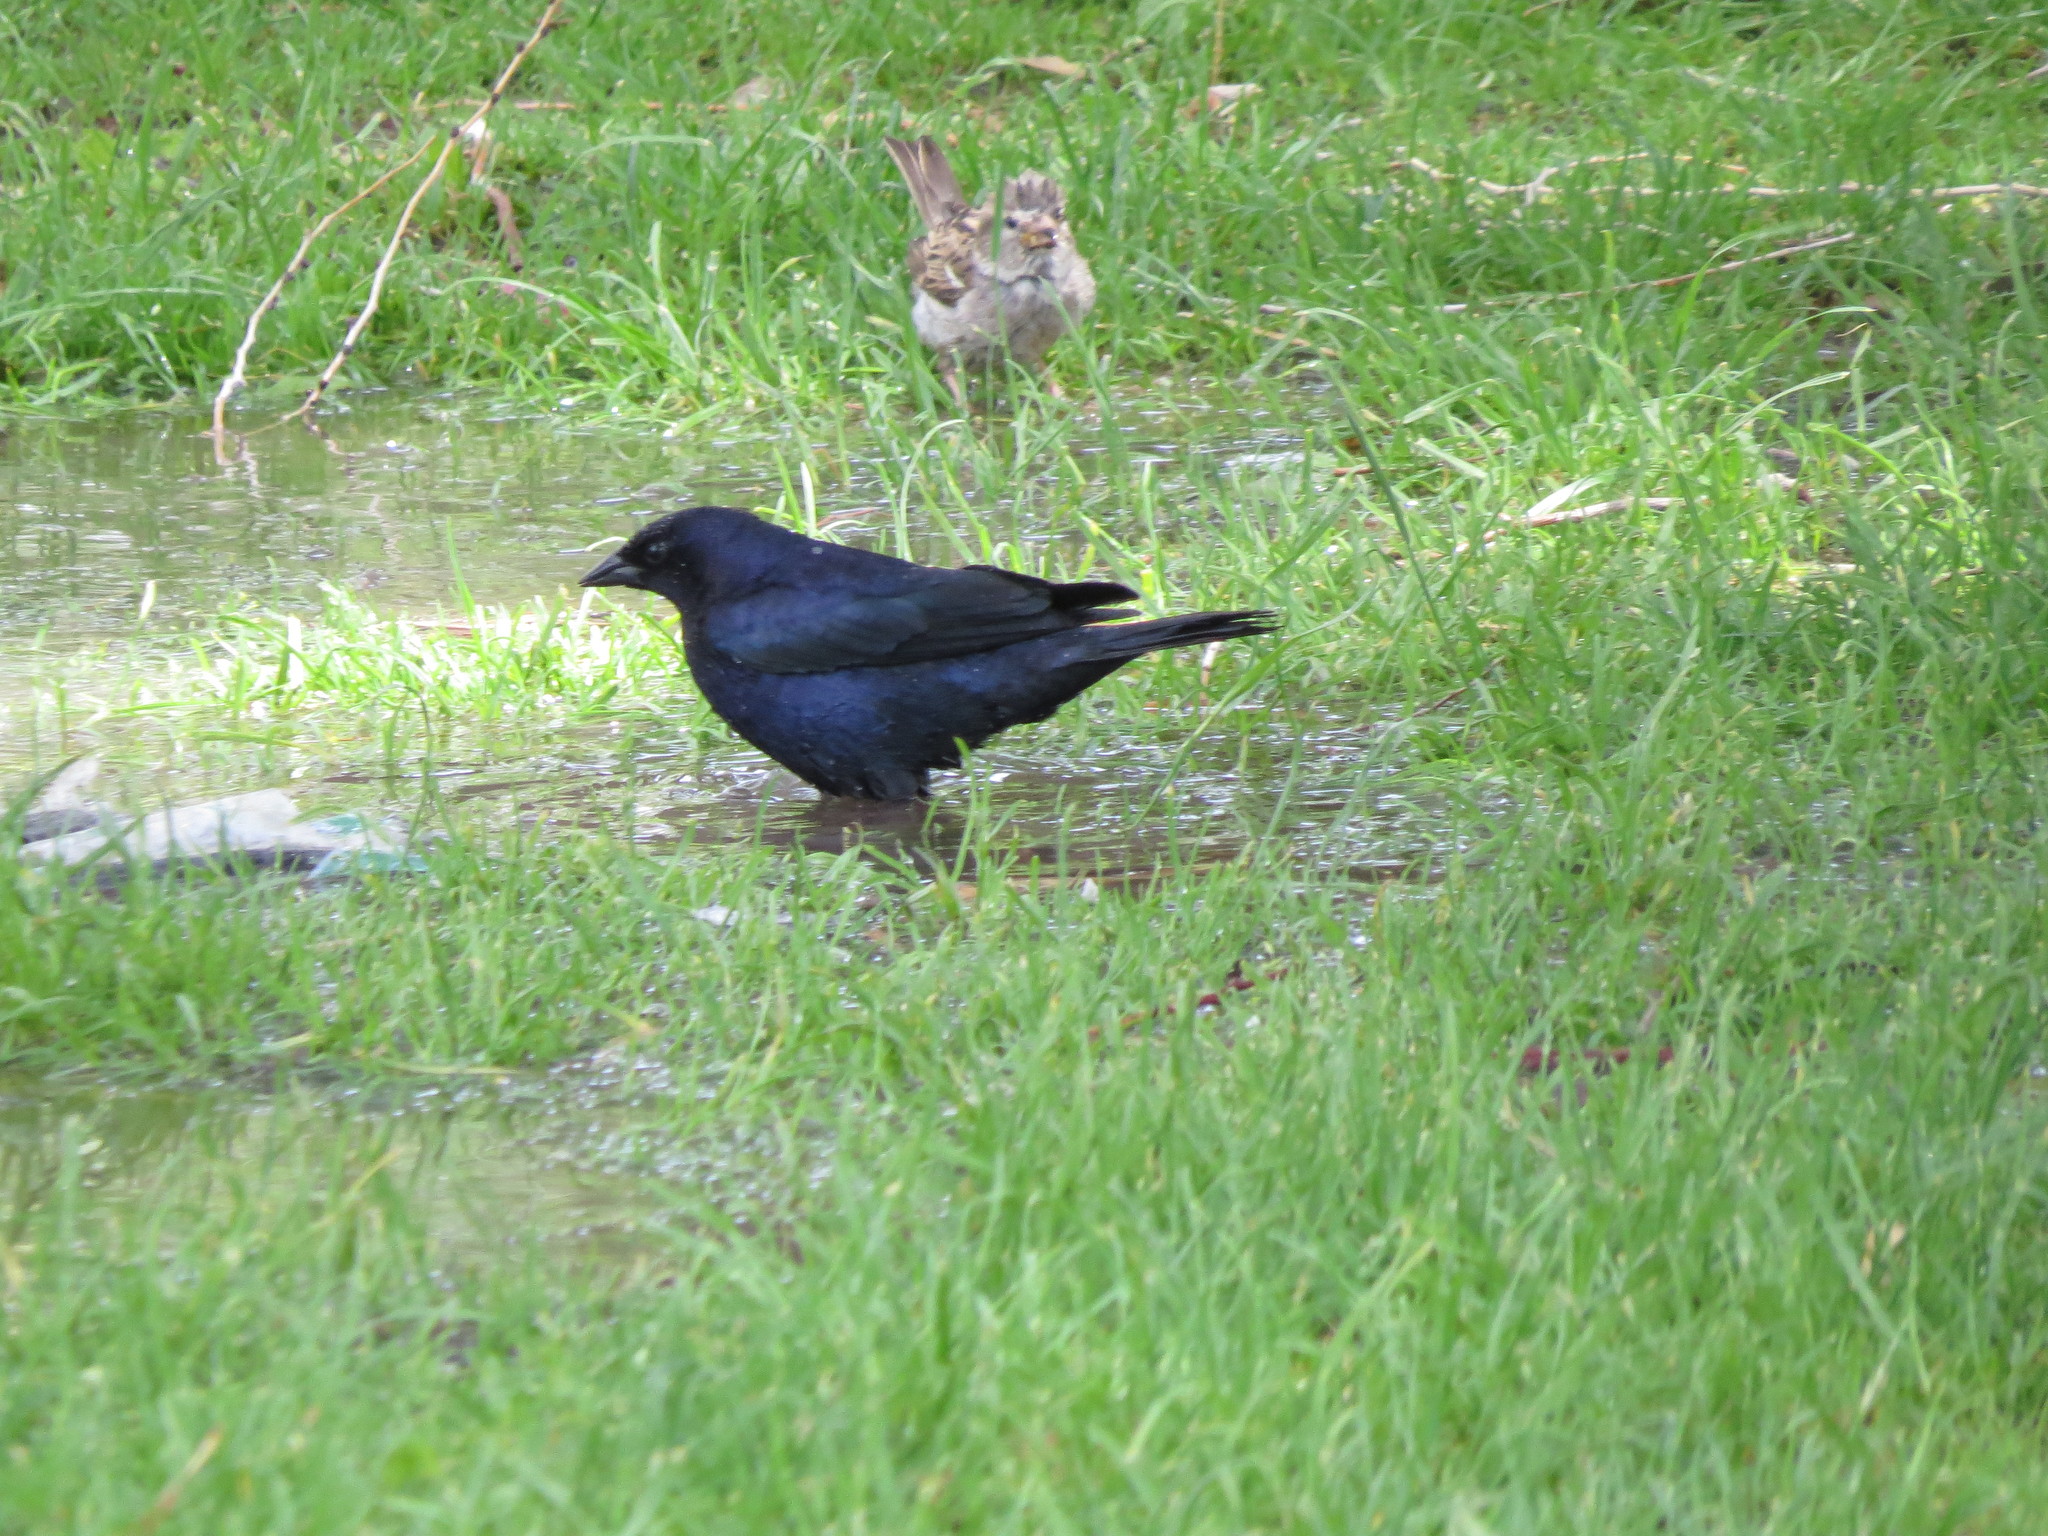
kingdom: Animalia
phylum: Chordata
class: Aves
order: Passeriformes
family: Icteridae
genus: Molothrus
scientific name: Molothrus bonariensis
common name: Shiny cowbird
